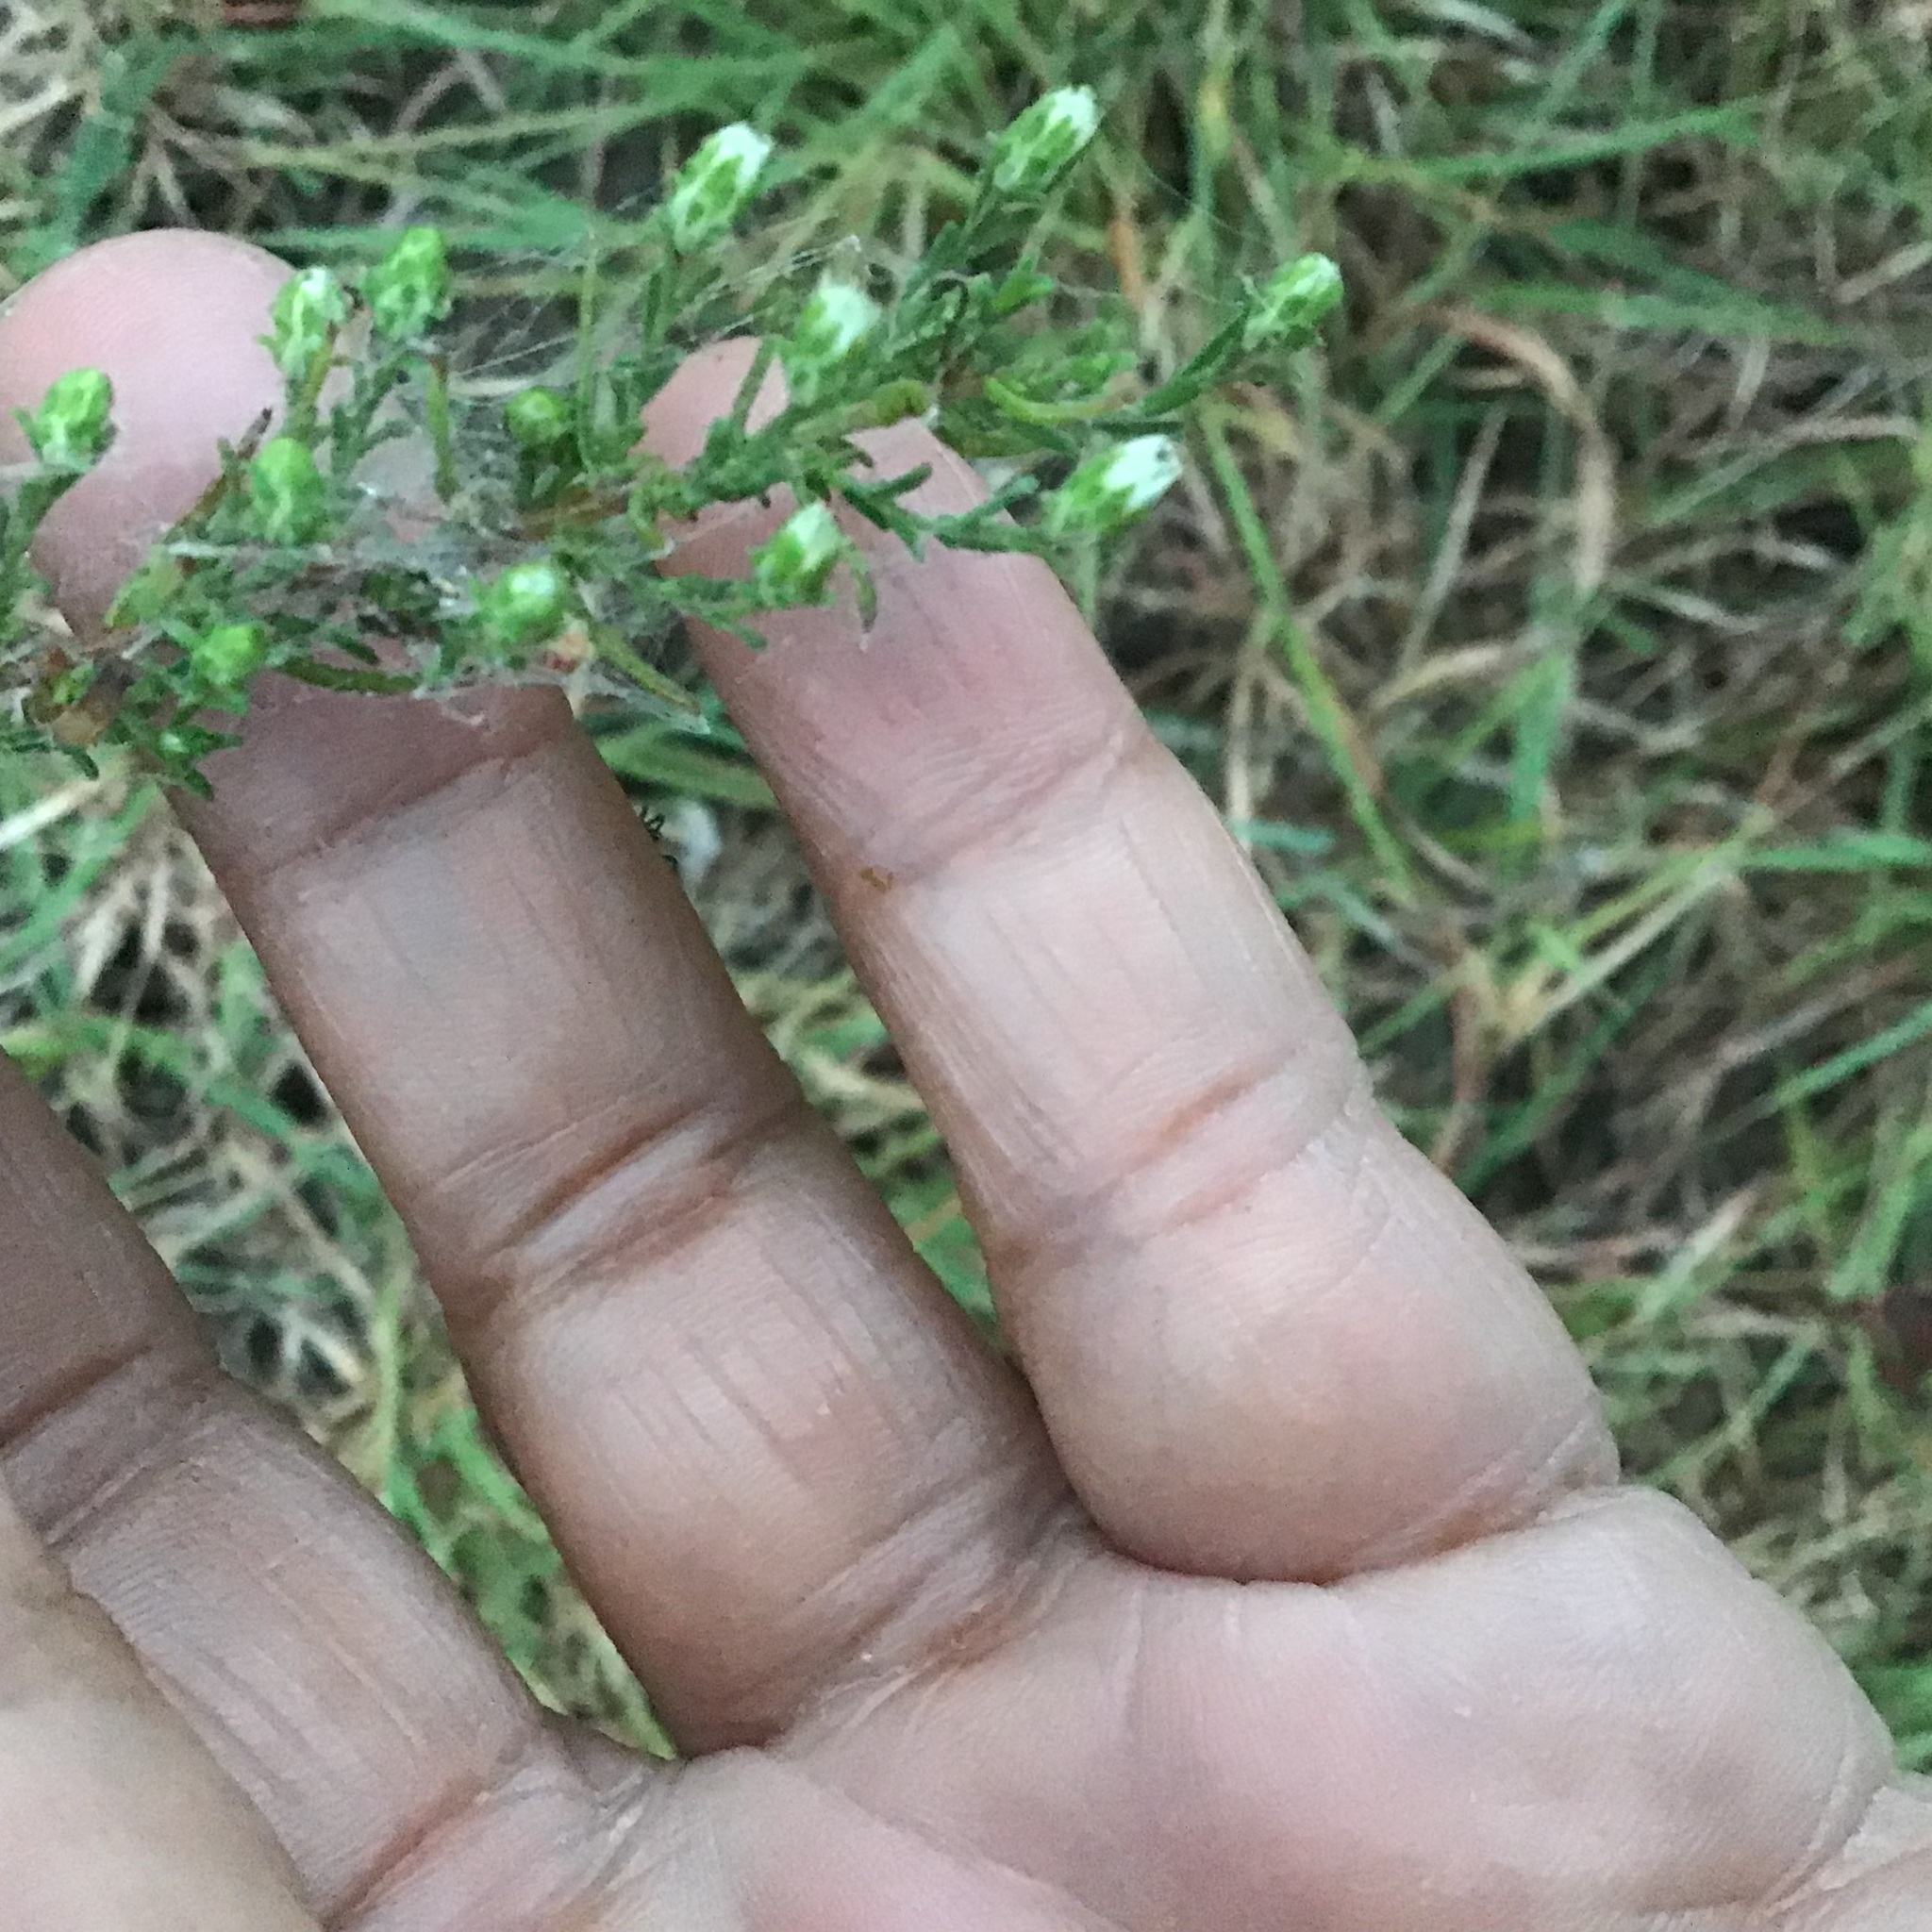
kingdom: Plantae
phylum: Tracheophyta
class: Magnoliopsida
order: Asterales
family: Asteraceae
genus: Symphyotrichum
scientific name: Symphyotrichum ericoides
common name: Heath aster
